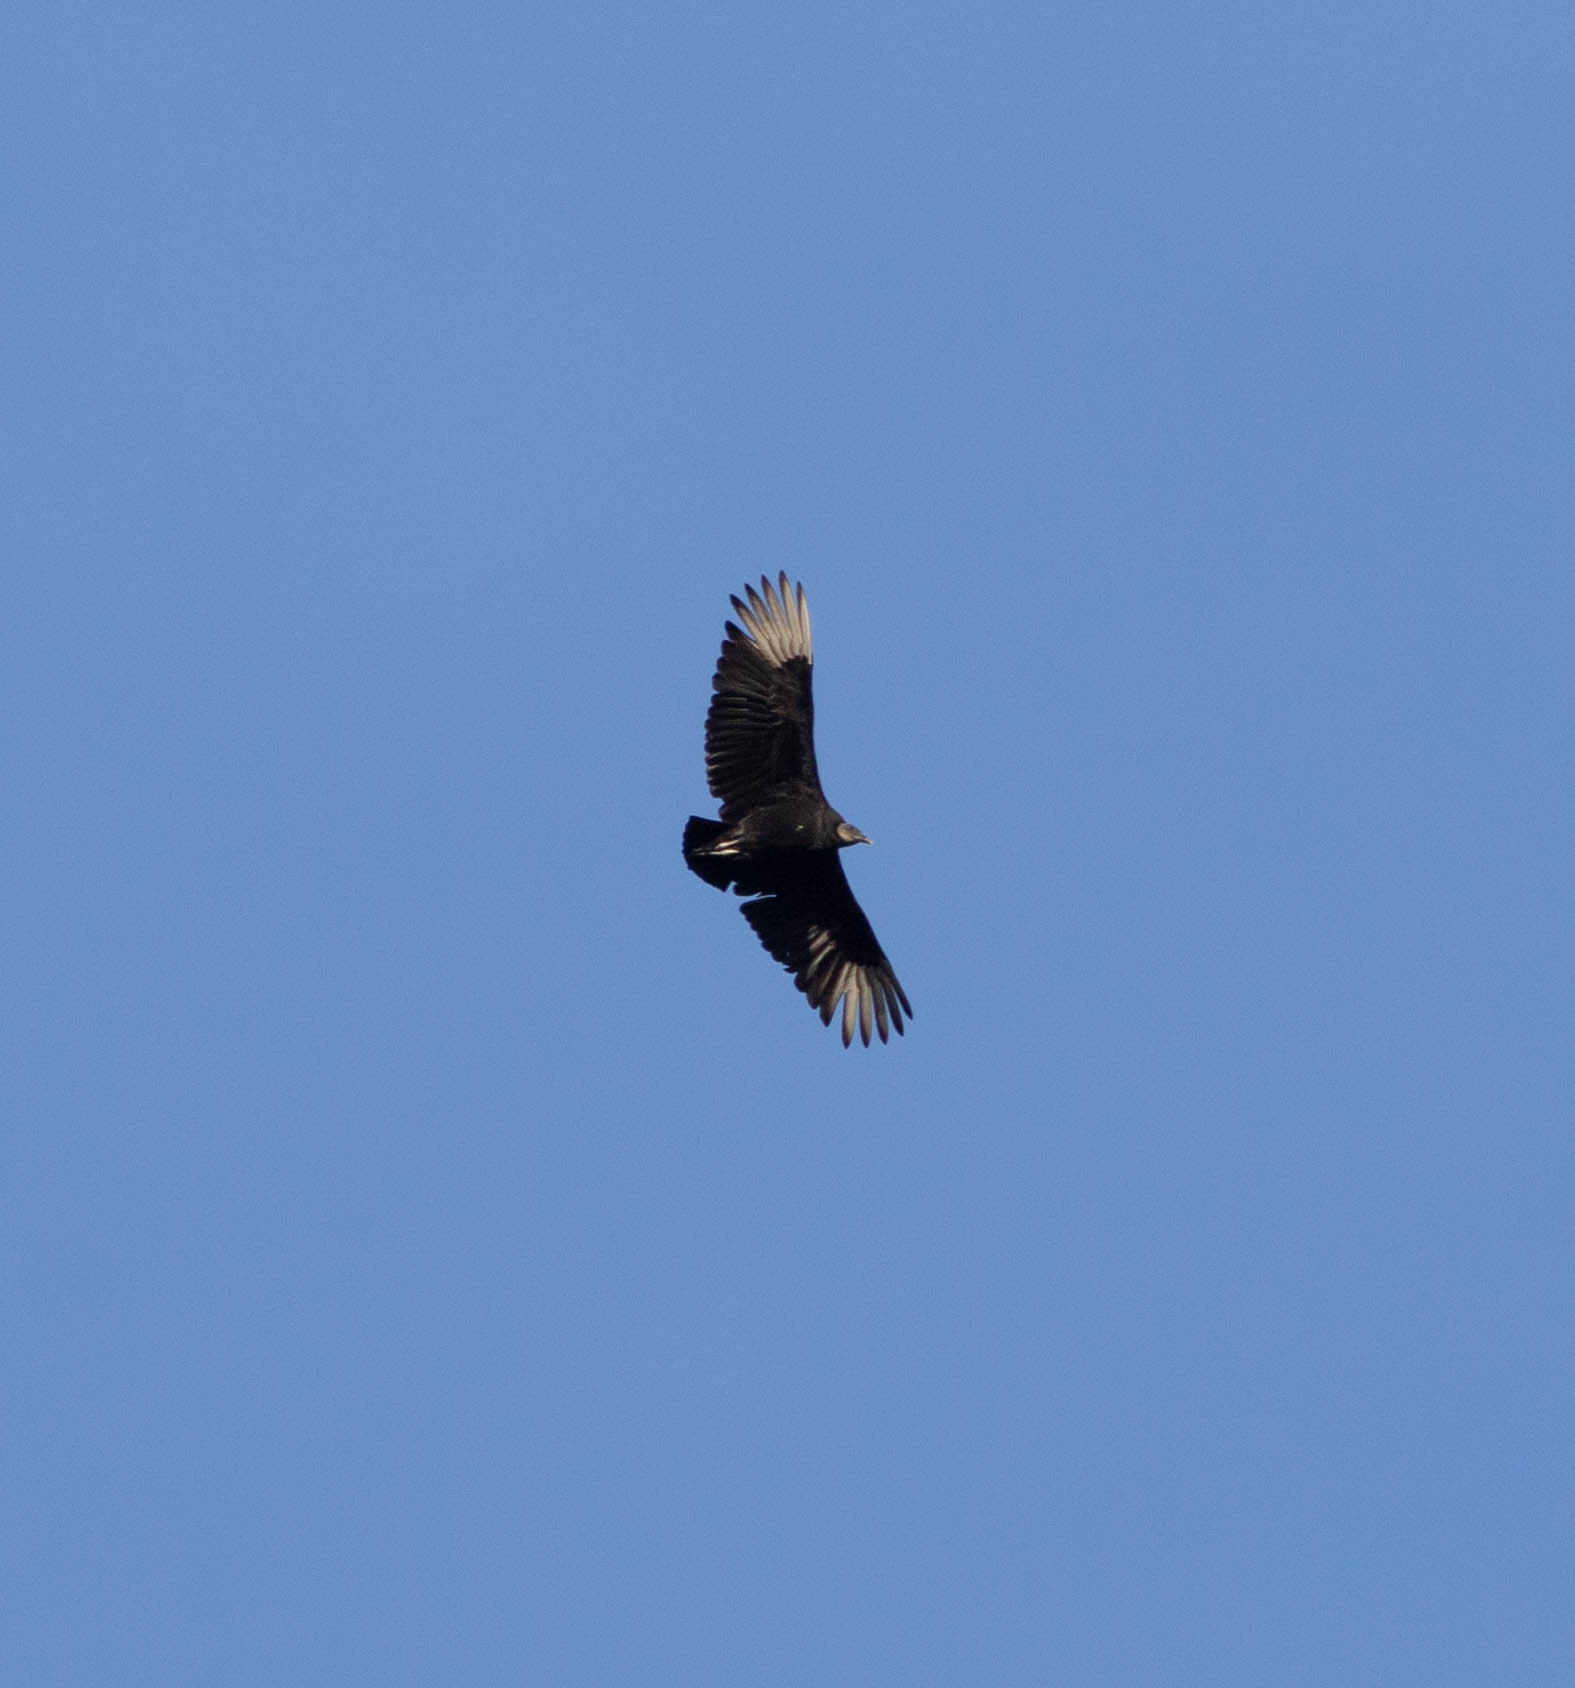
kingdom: Animalia
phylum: Chordata
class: Aves
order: Accipitriformes
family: Cathartidae
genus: Coragyps
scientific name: Coragyps atratus
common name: Black vulture
